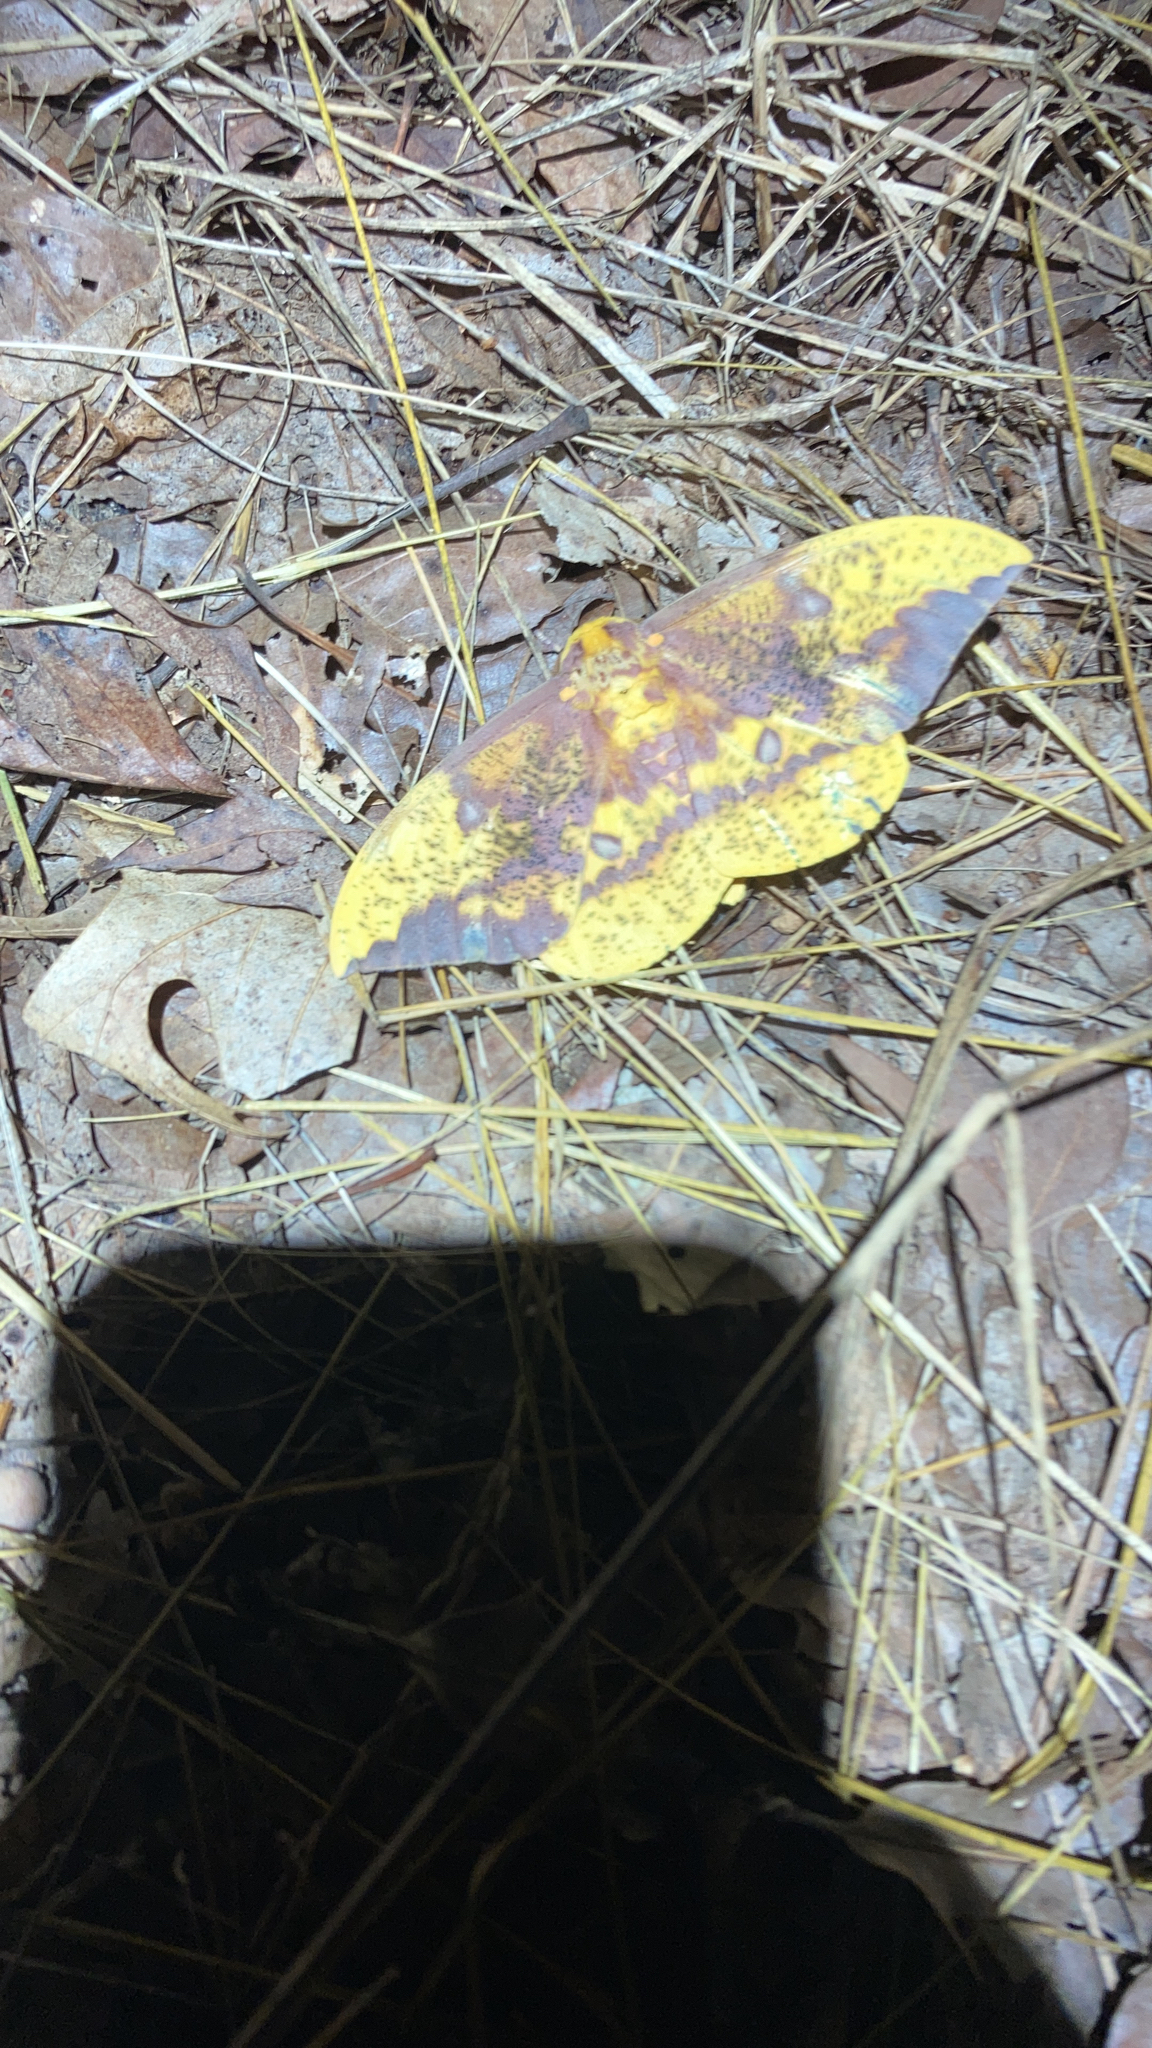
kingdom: Animalia
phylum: Arthropoda
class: Insecta
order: Lepidoptera
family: Saturniidae
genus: Eacles
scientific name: Eacles imperialis
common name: Imperial moth
